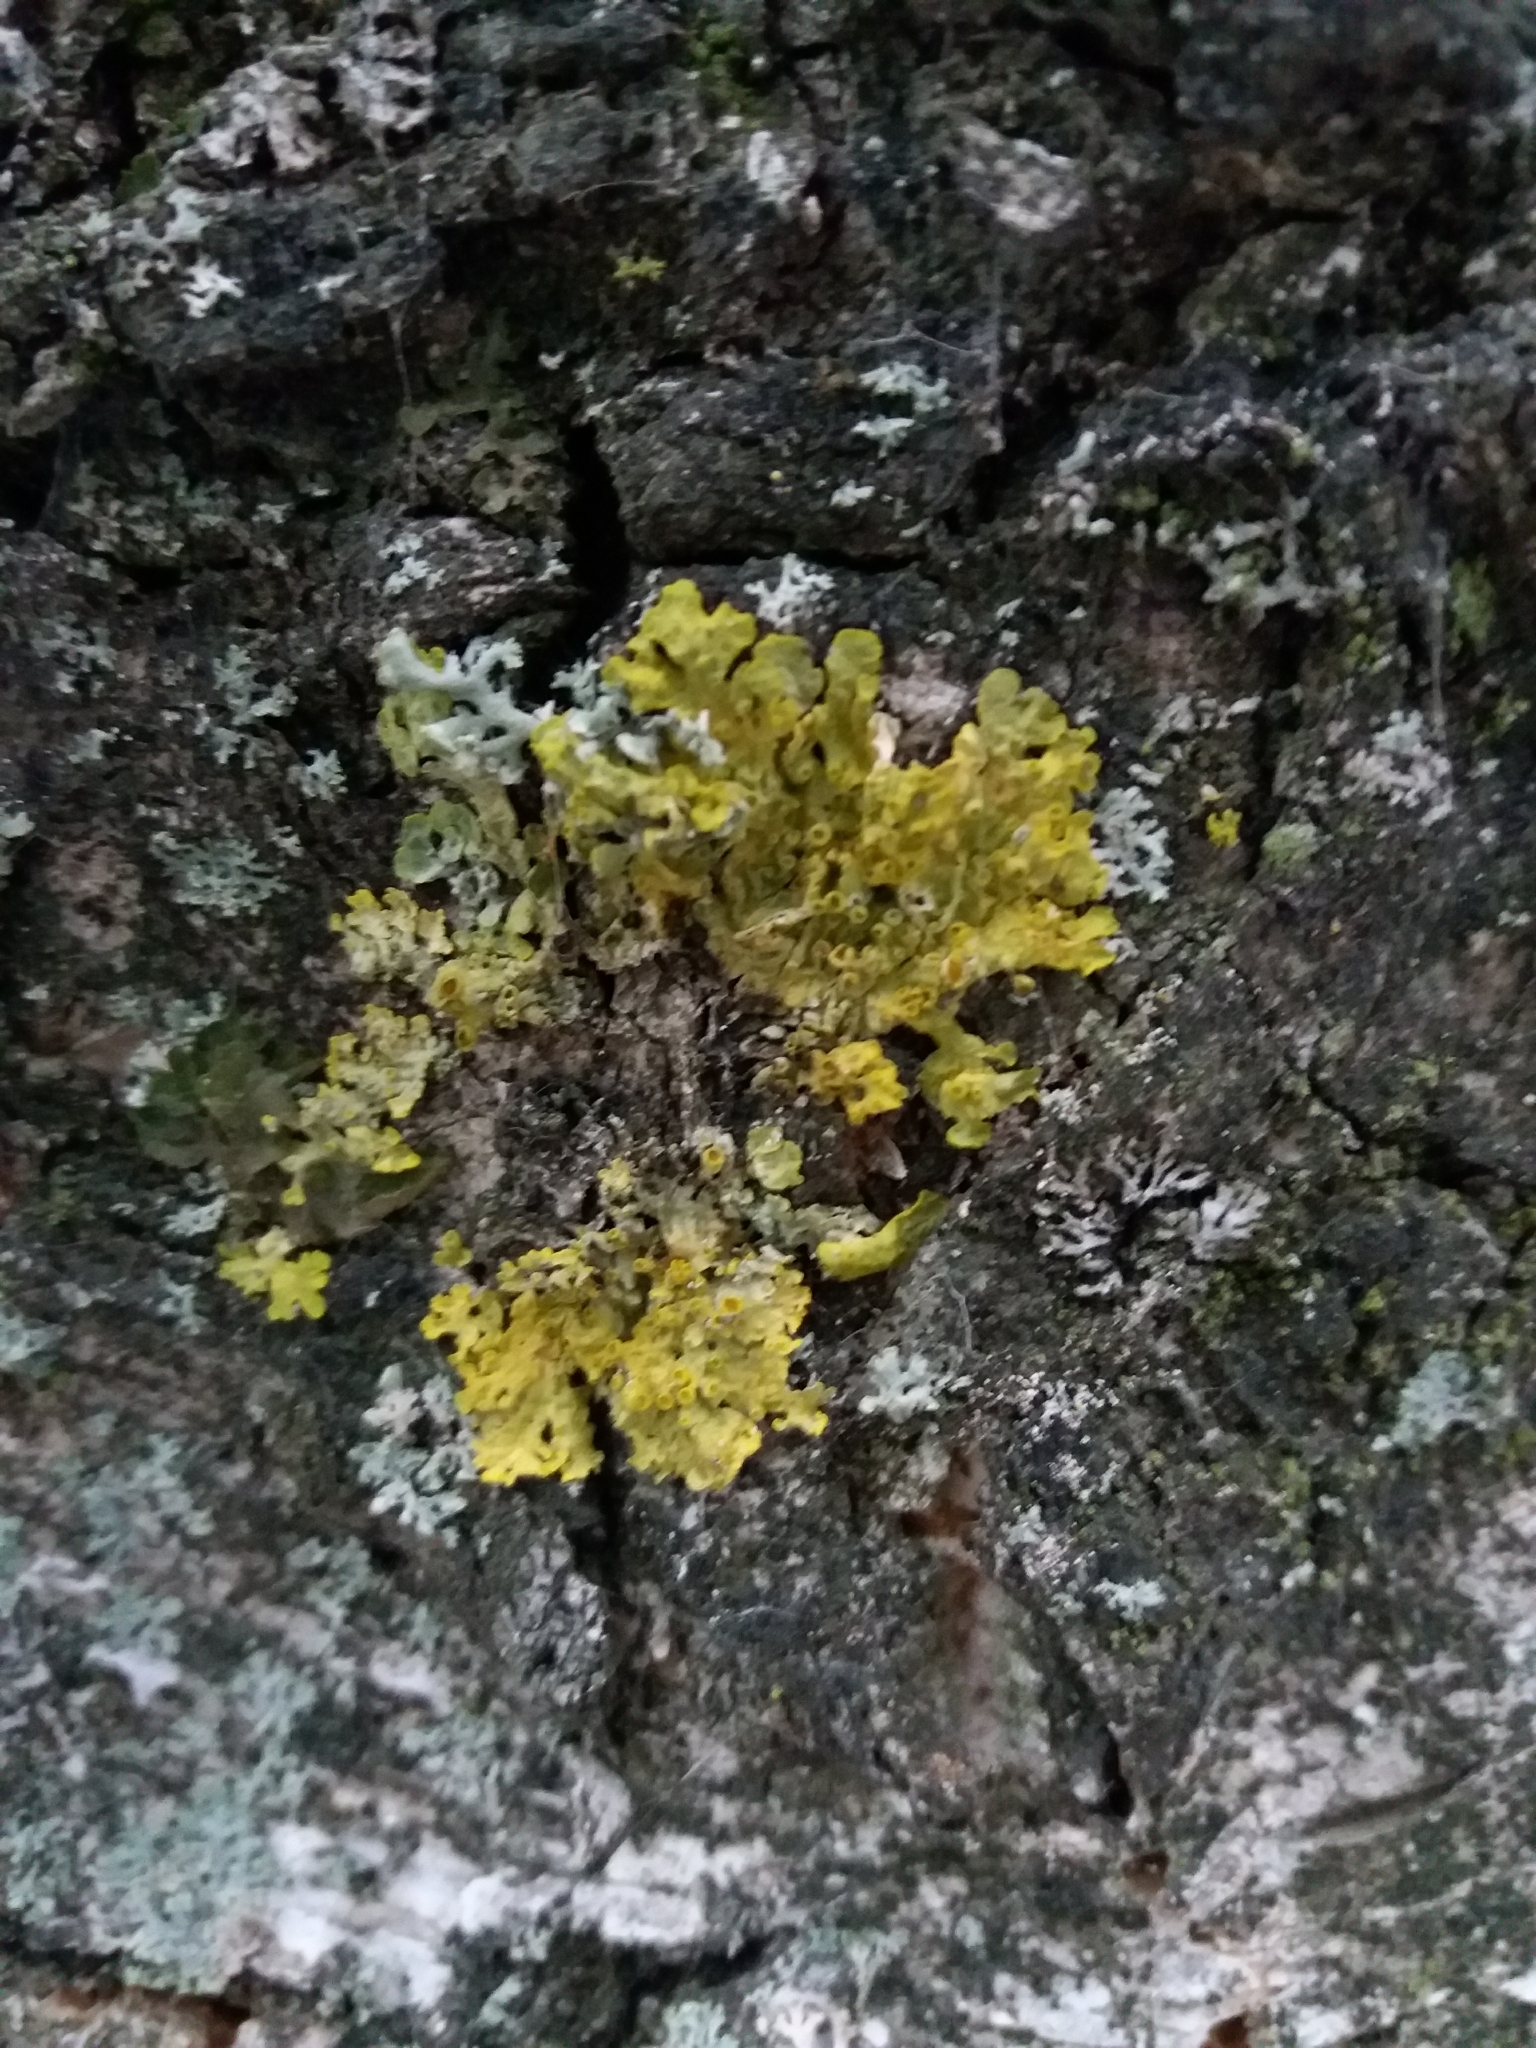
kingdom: Fungi
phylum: Ascomycota
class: Lecanoromycetes
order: Teloschistales
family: Teloschistaceae
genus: Xanthoria
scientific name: Xanthoria parietina
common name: Common orange lichen
